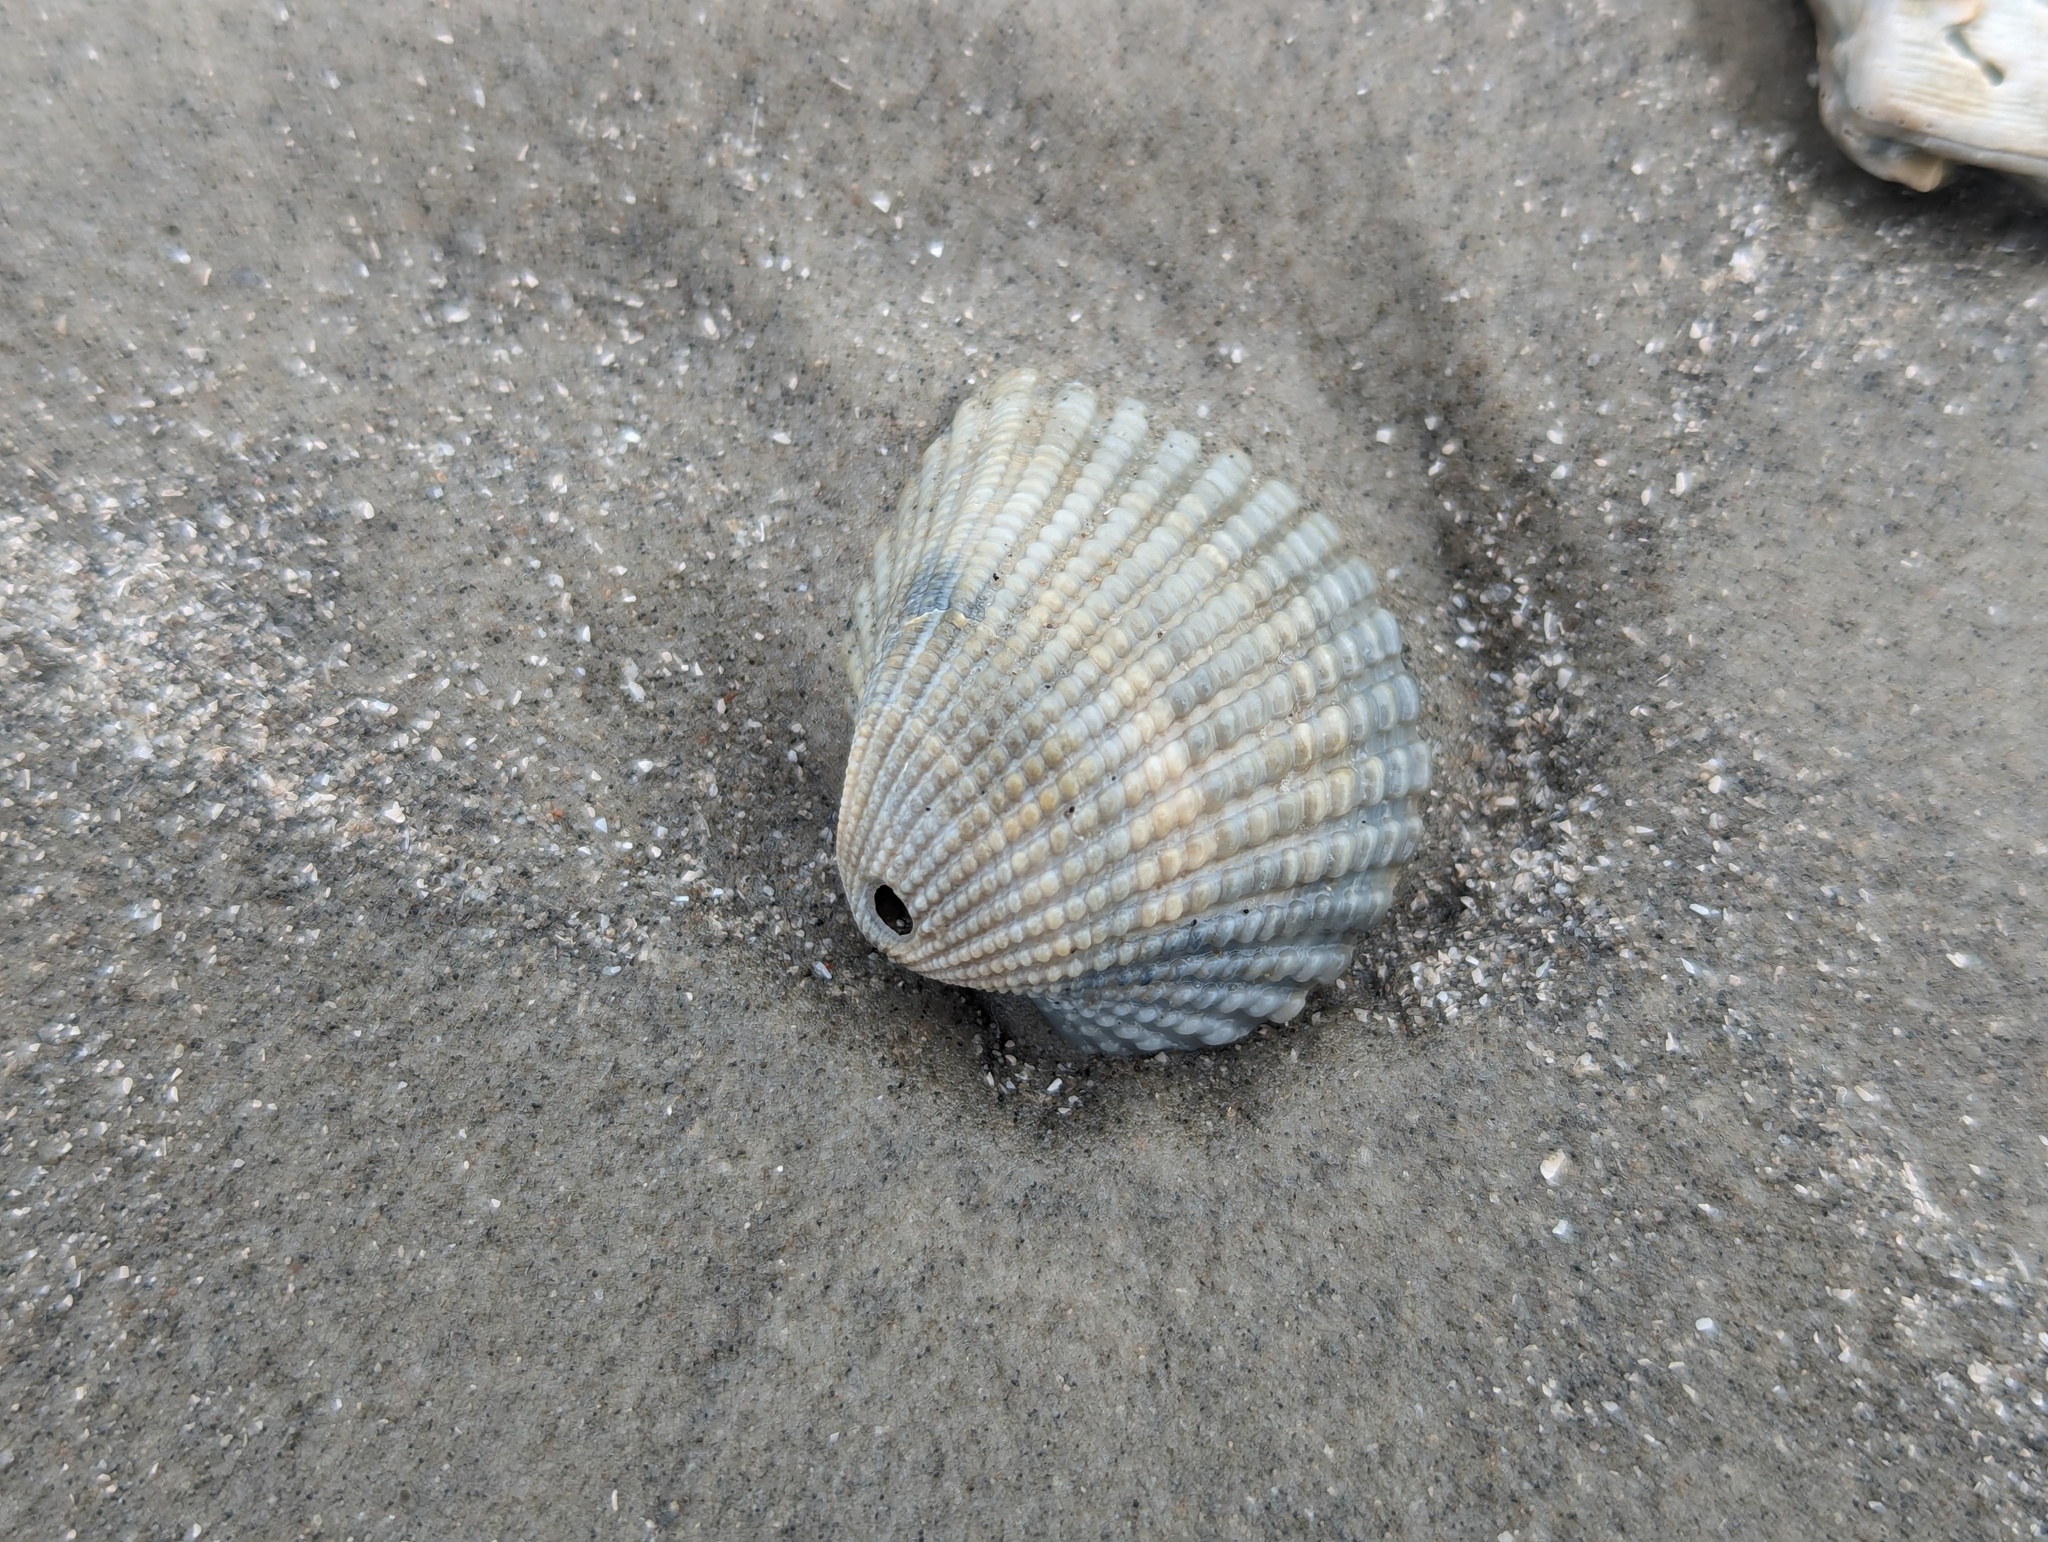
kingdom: Animalia
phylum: Mollusca
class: Bivalvia
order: Arcida
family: Arcidae
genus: Anadara
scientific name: Anadara brasiliana
